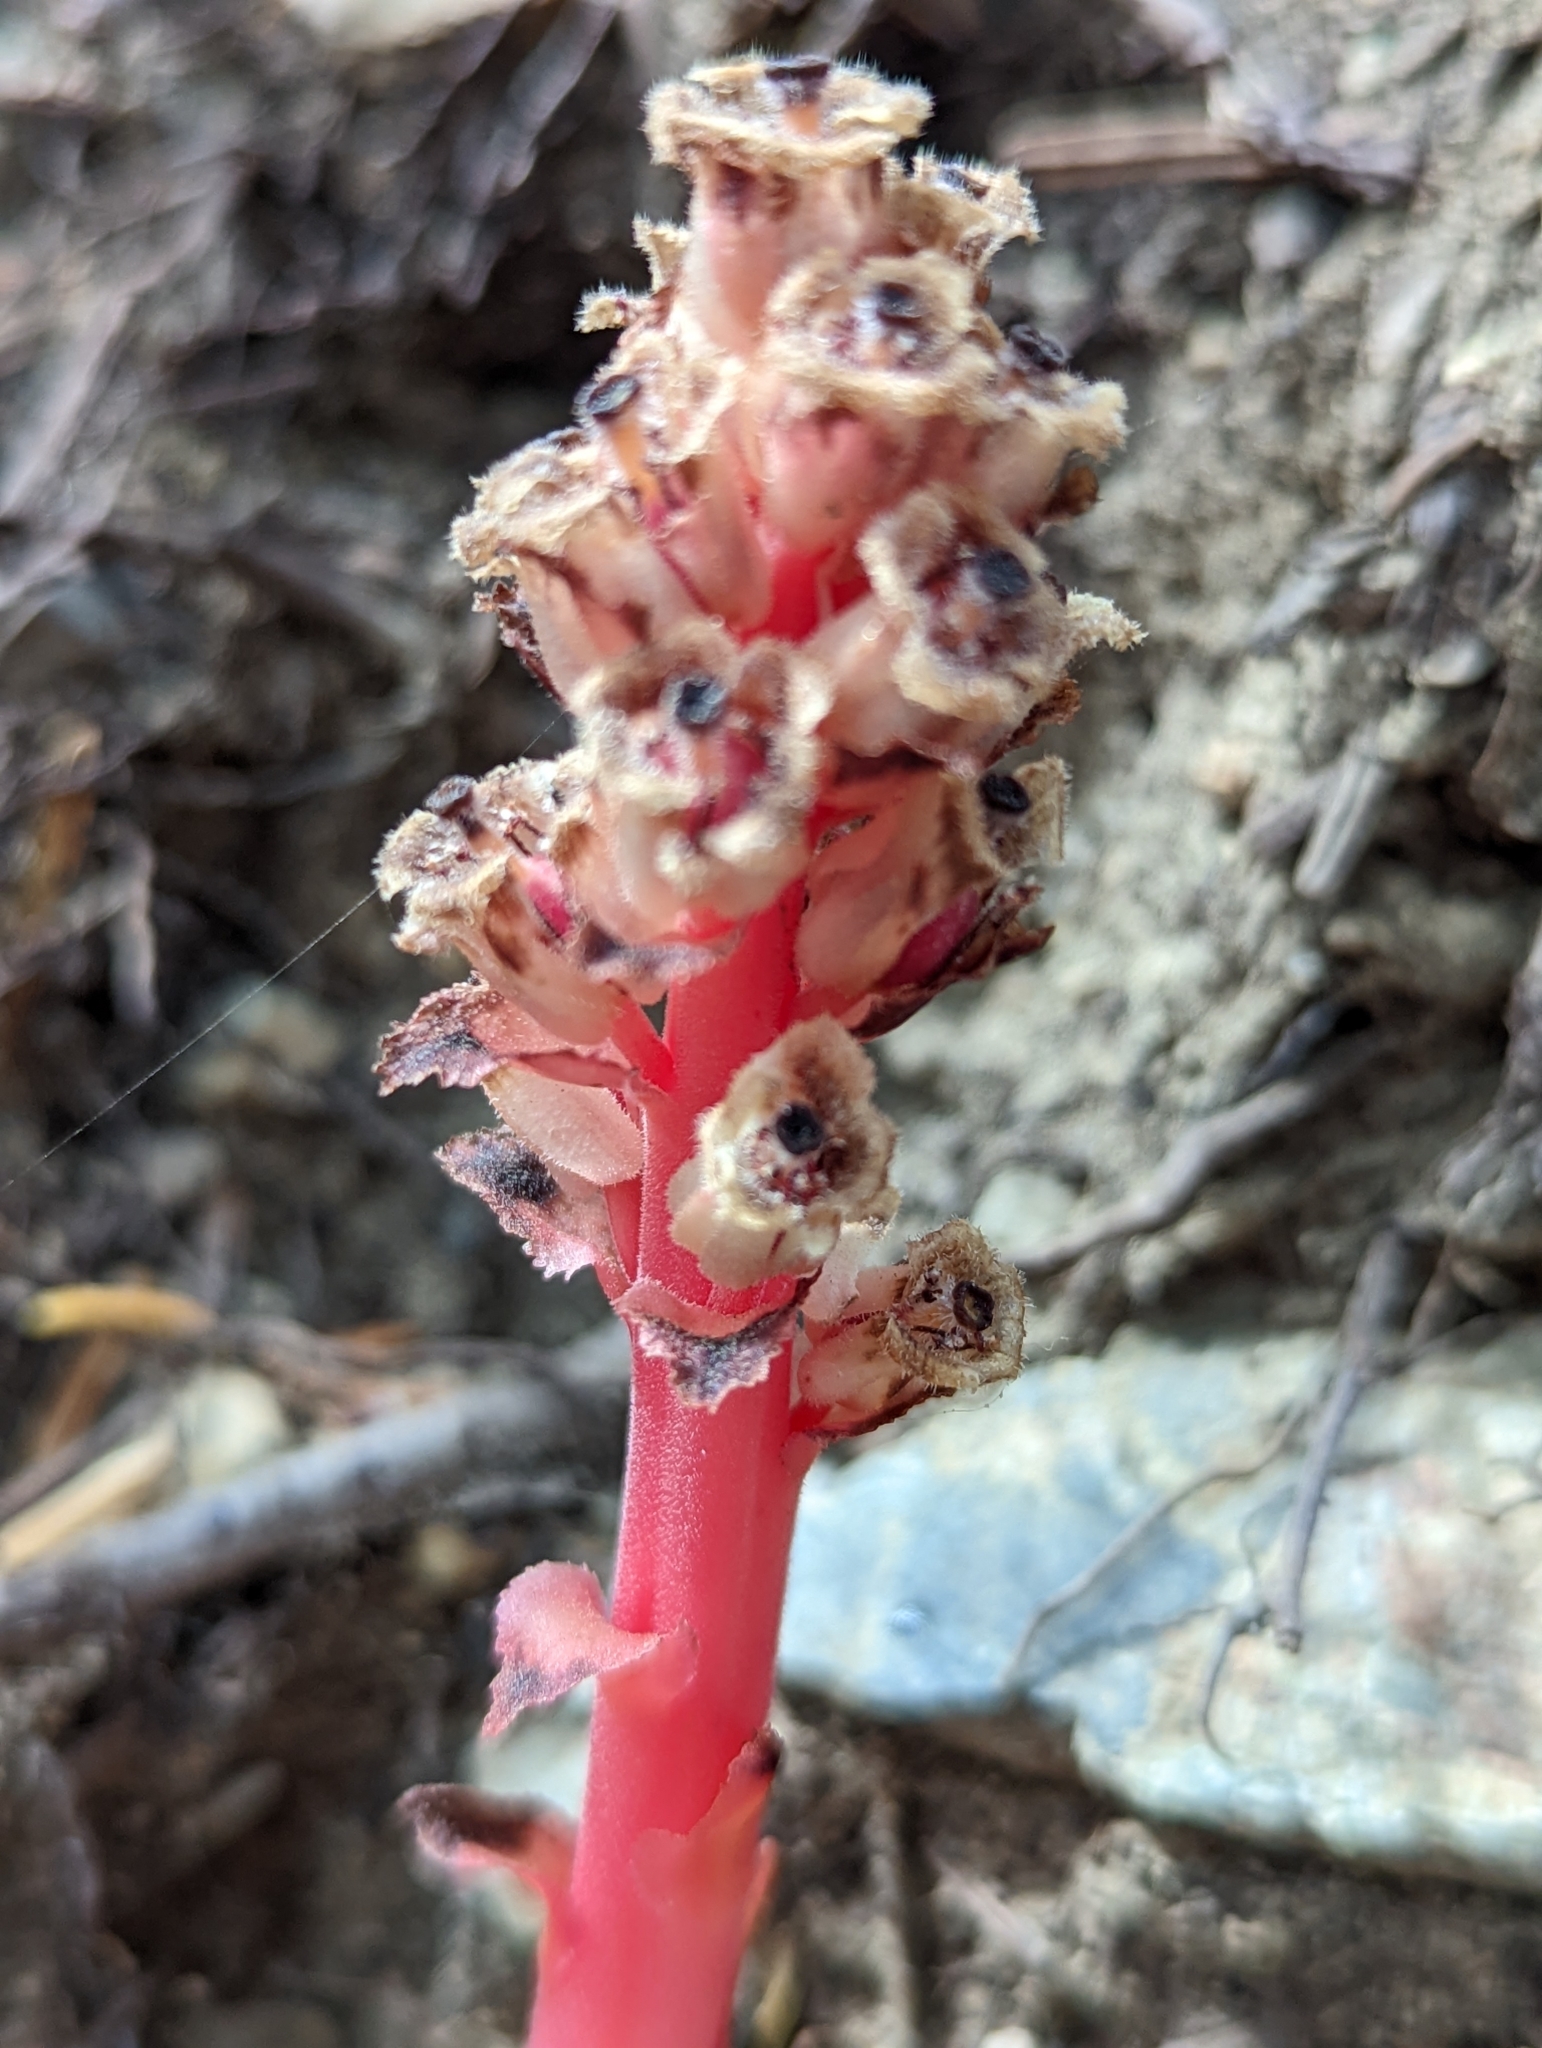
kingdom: Plantae
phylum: Tracheophyta
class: Magnoliopsida
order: Ericales
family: Ericaceae
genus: Hypopitys
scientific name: Hypopitys monotropa
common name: Yellow bird's-nest
